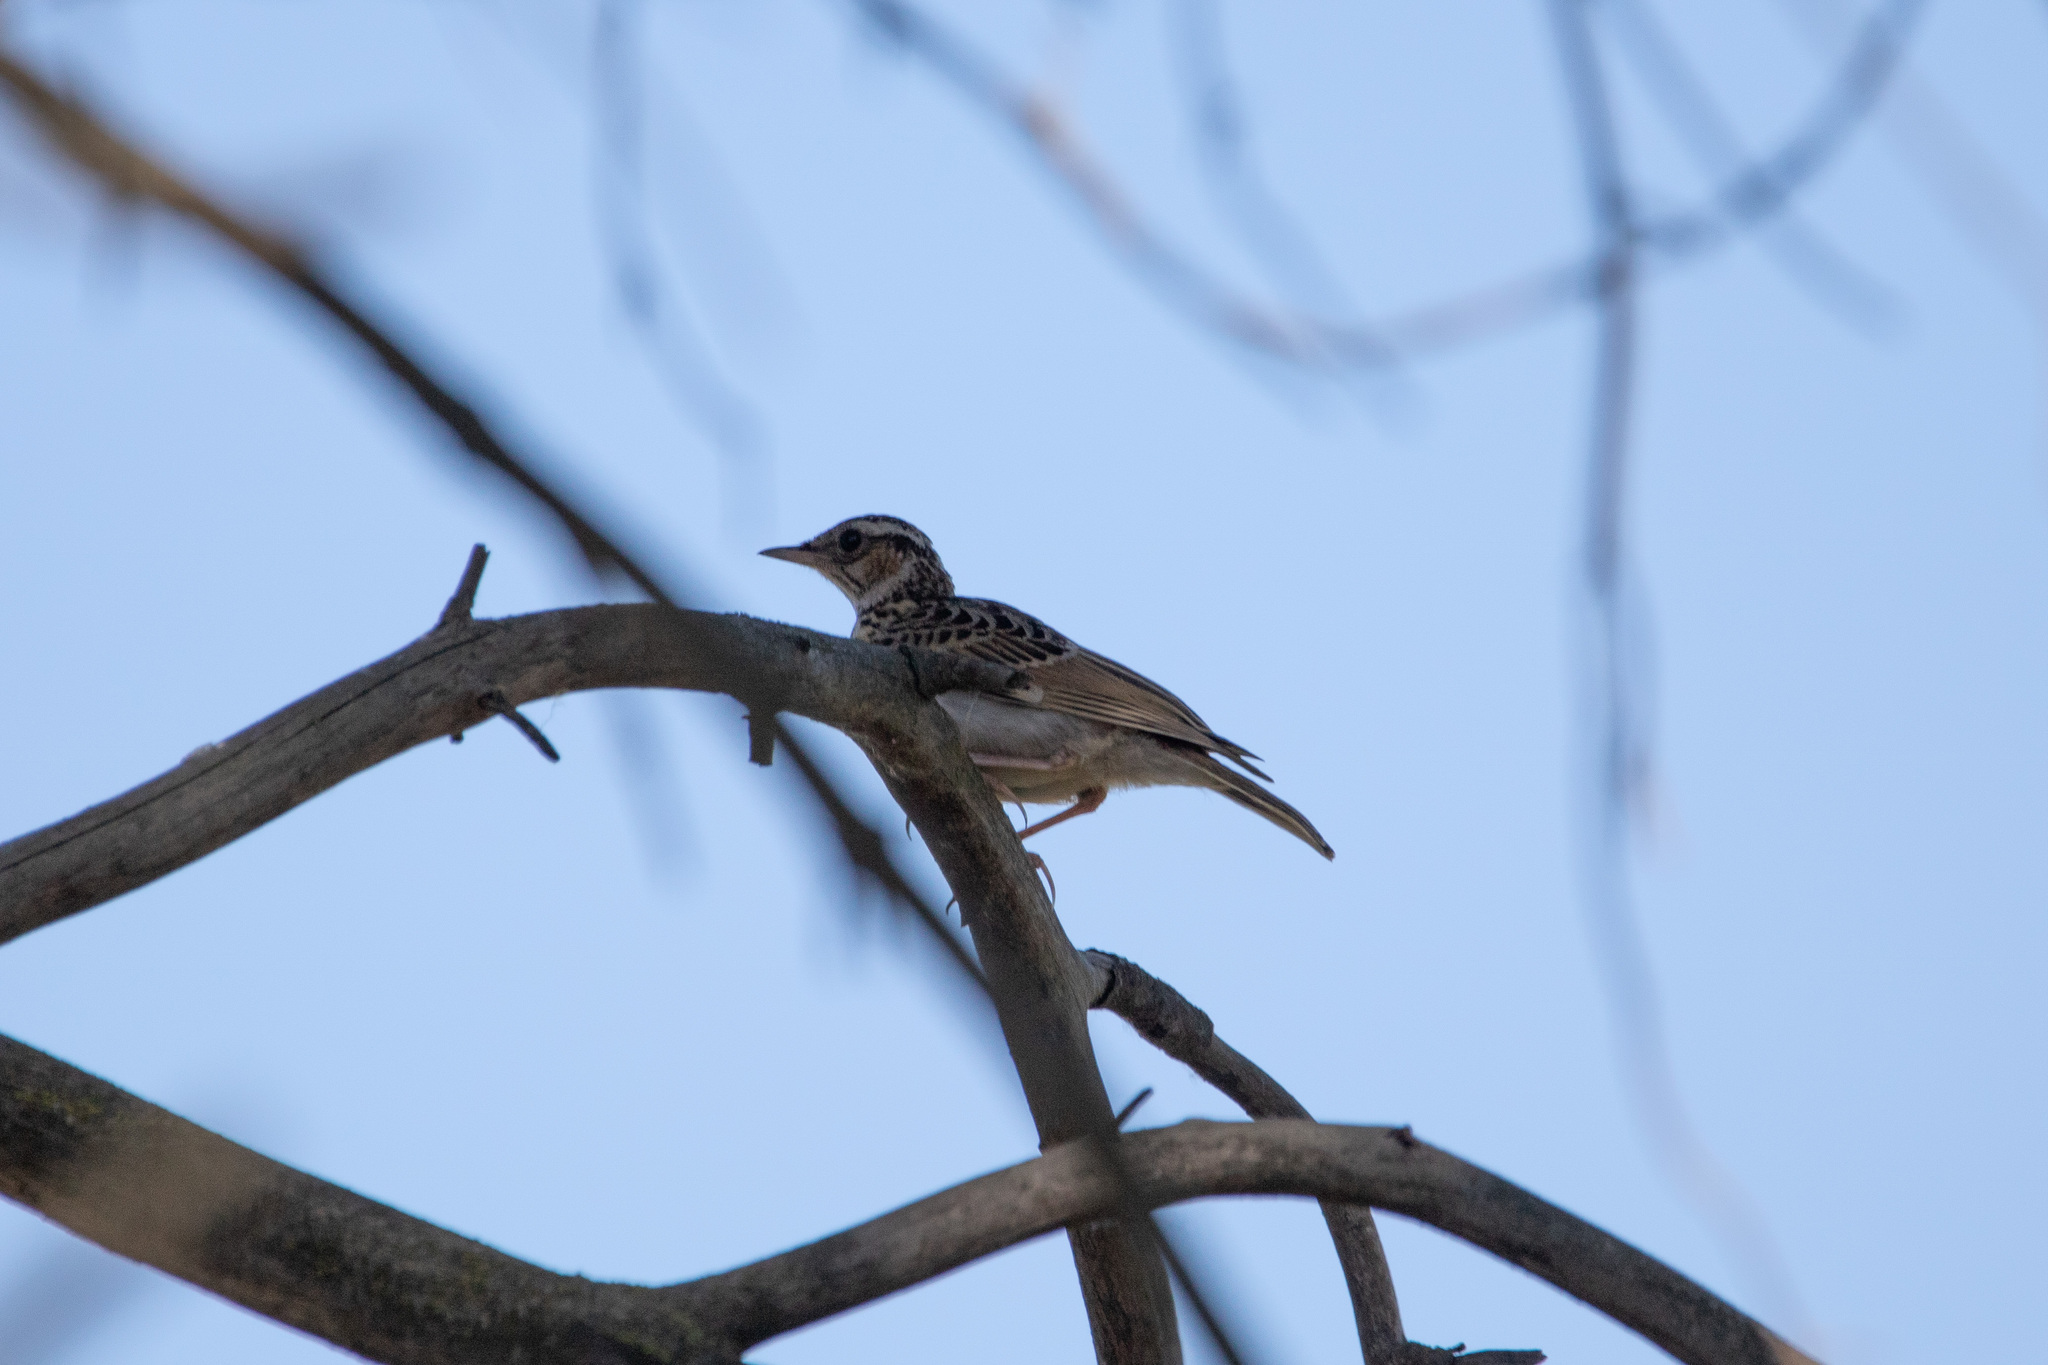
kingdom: Animalia
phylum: Chordata
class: Aves
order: Passeriformes
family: Alaudidae
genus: Lullula
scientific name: Lullula arborea
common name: Woodlark
